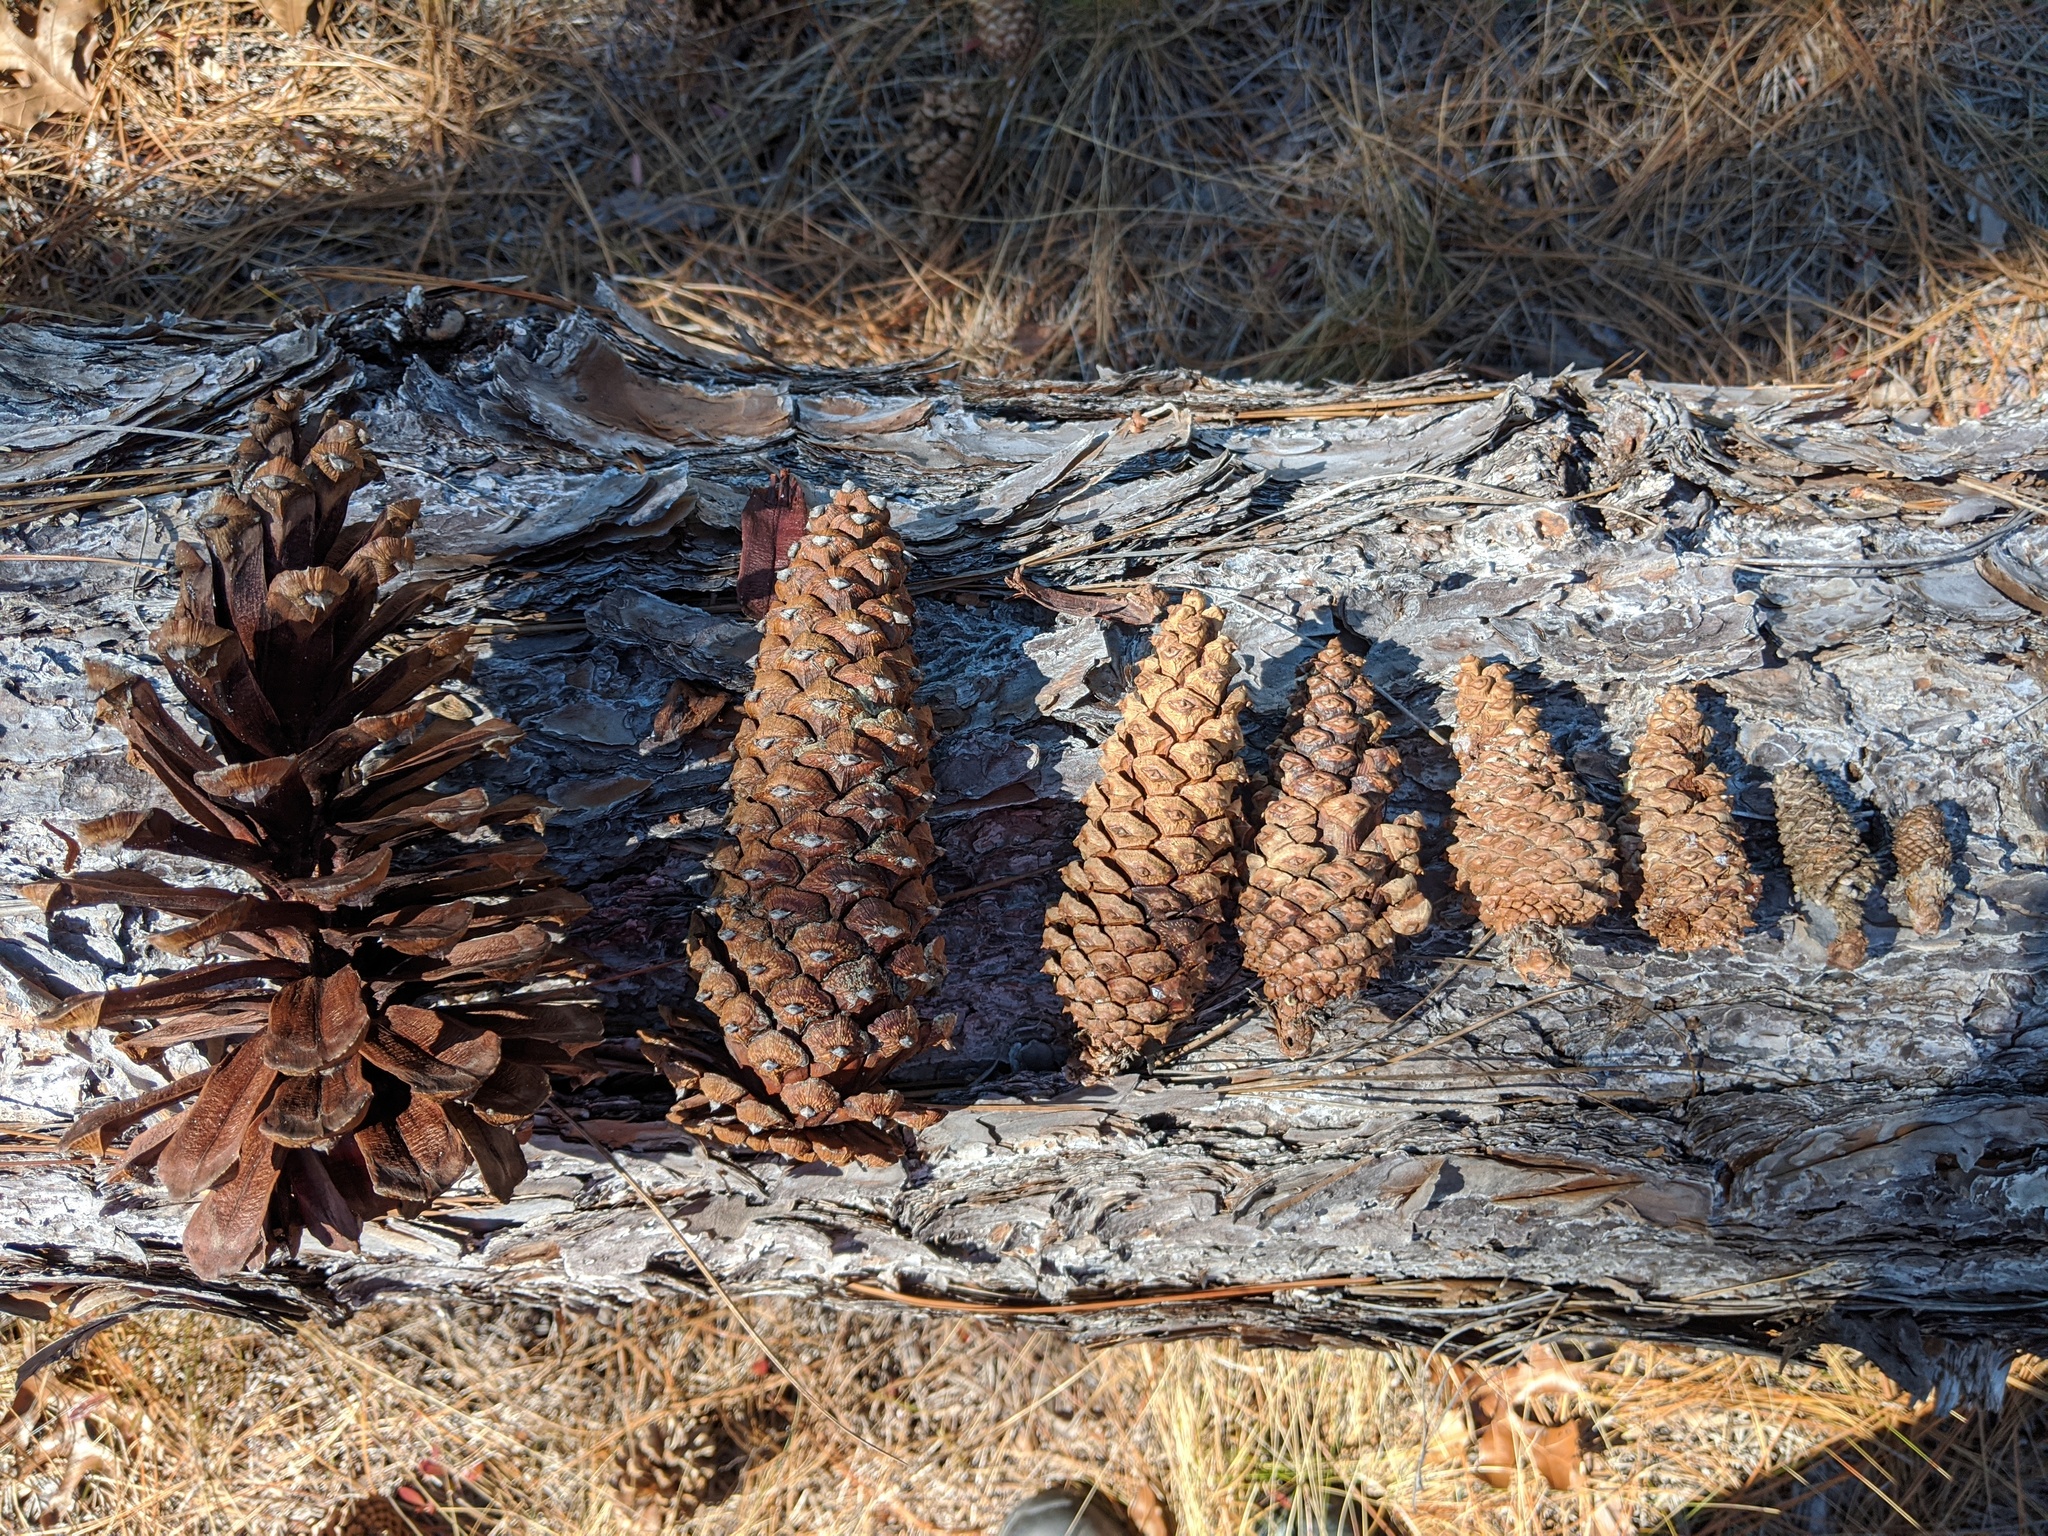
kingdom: Plantae
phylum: Tracheophyta
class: Pinopsida
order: Pinales
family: Pinaceae
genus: Pinus
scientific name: Pinus palustris
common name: Longleaf pine
